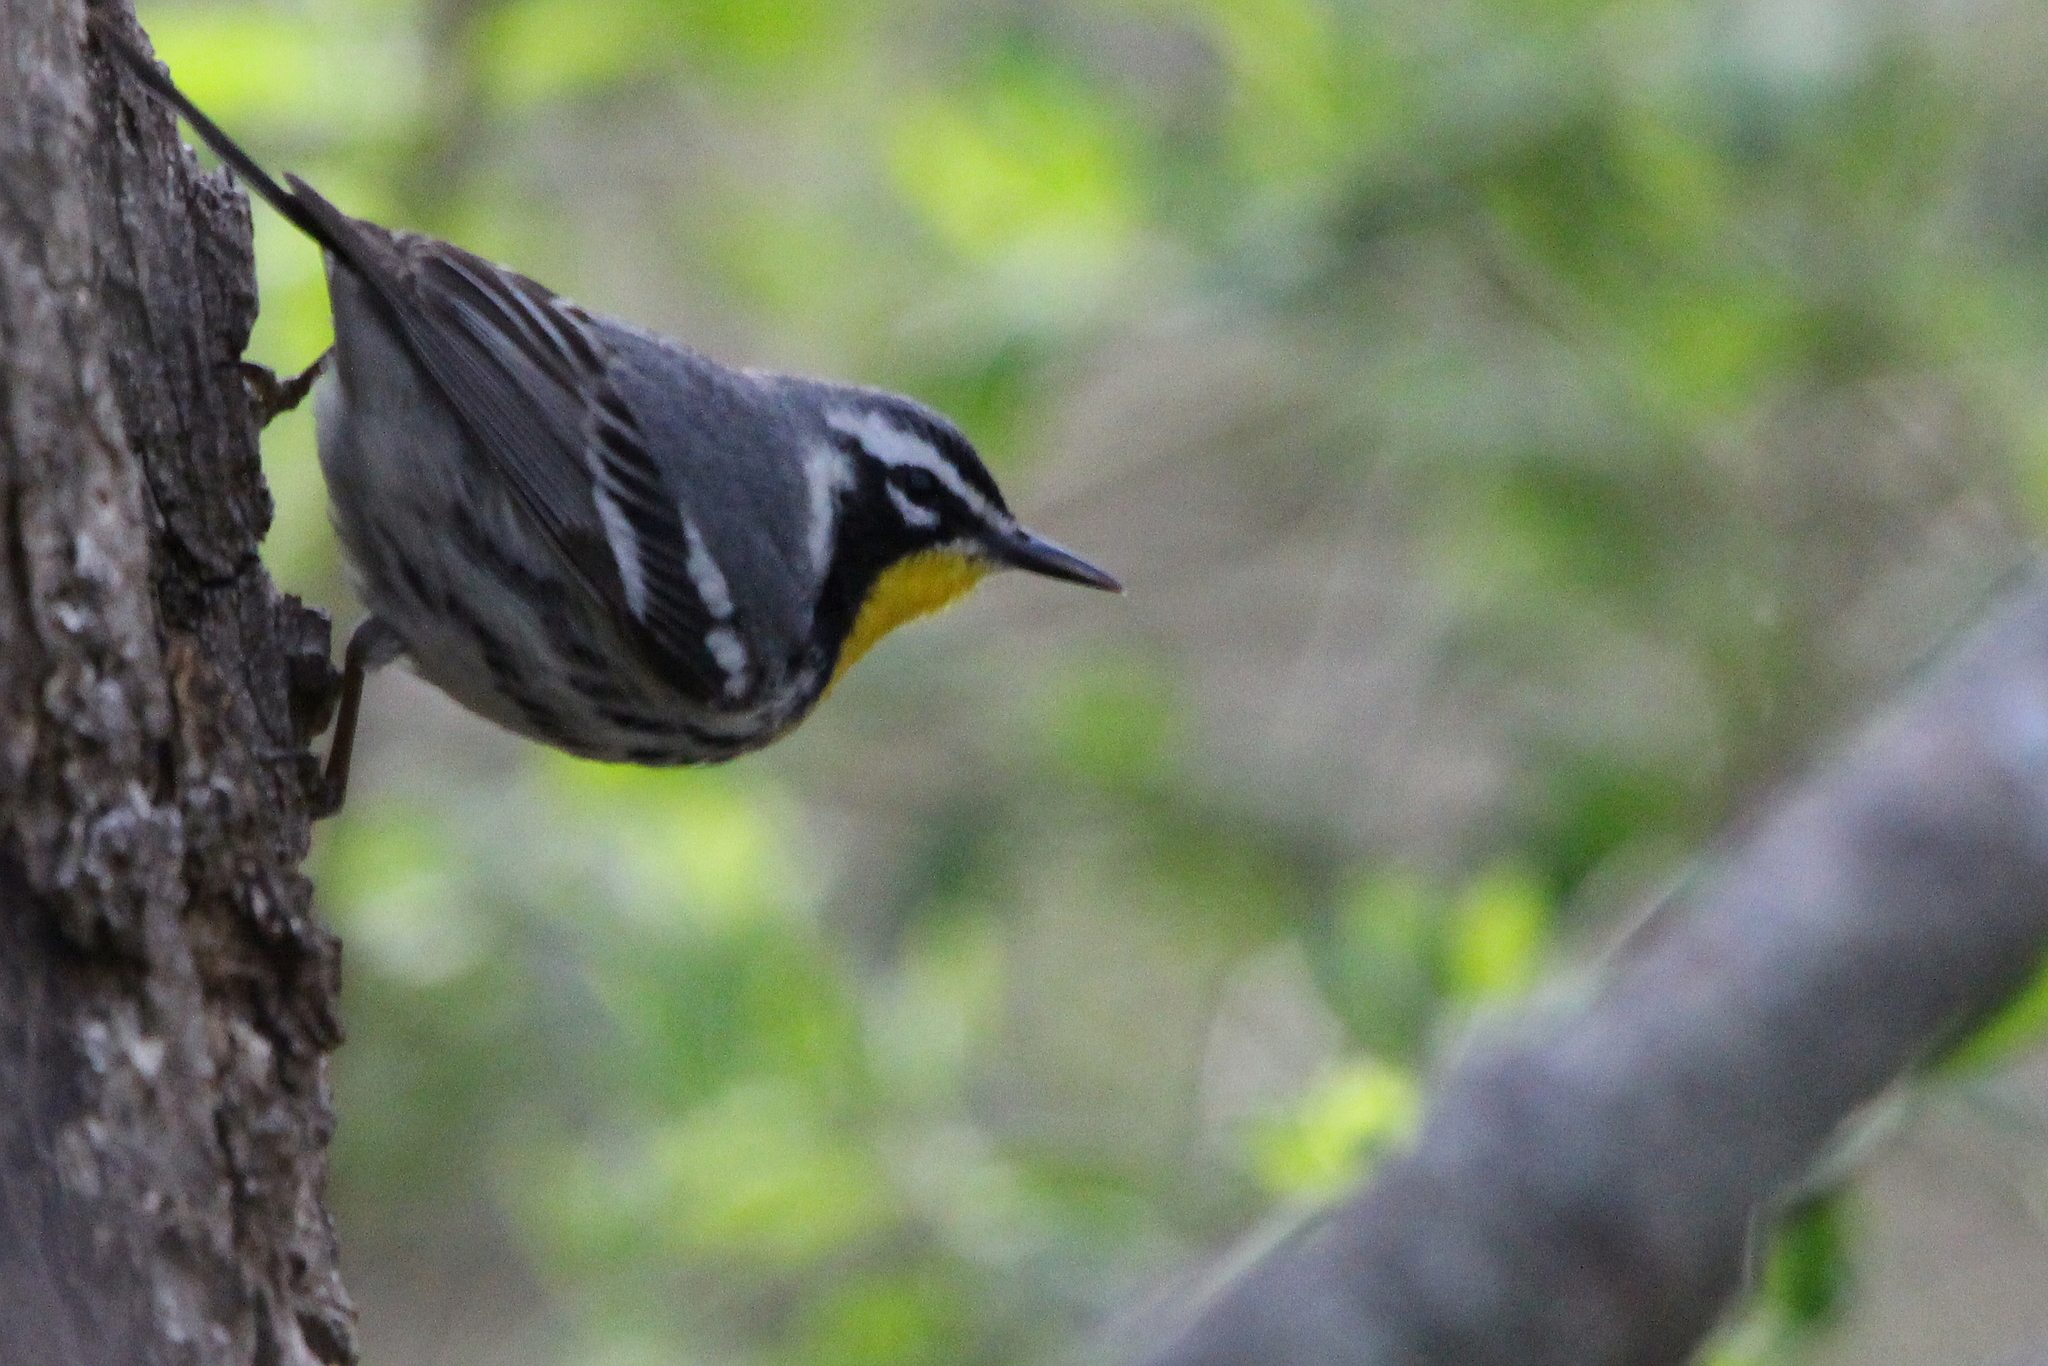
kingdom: Animalia
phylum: Chordata
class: Aves
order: Passeriformes
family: Parulidae
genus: Setophaga
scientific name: Setophaga dominica
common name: Yellow-throated warbler
